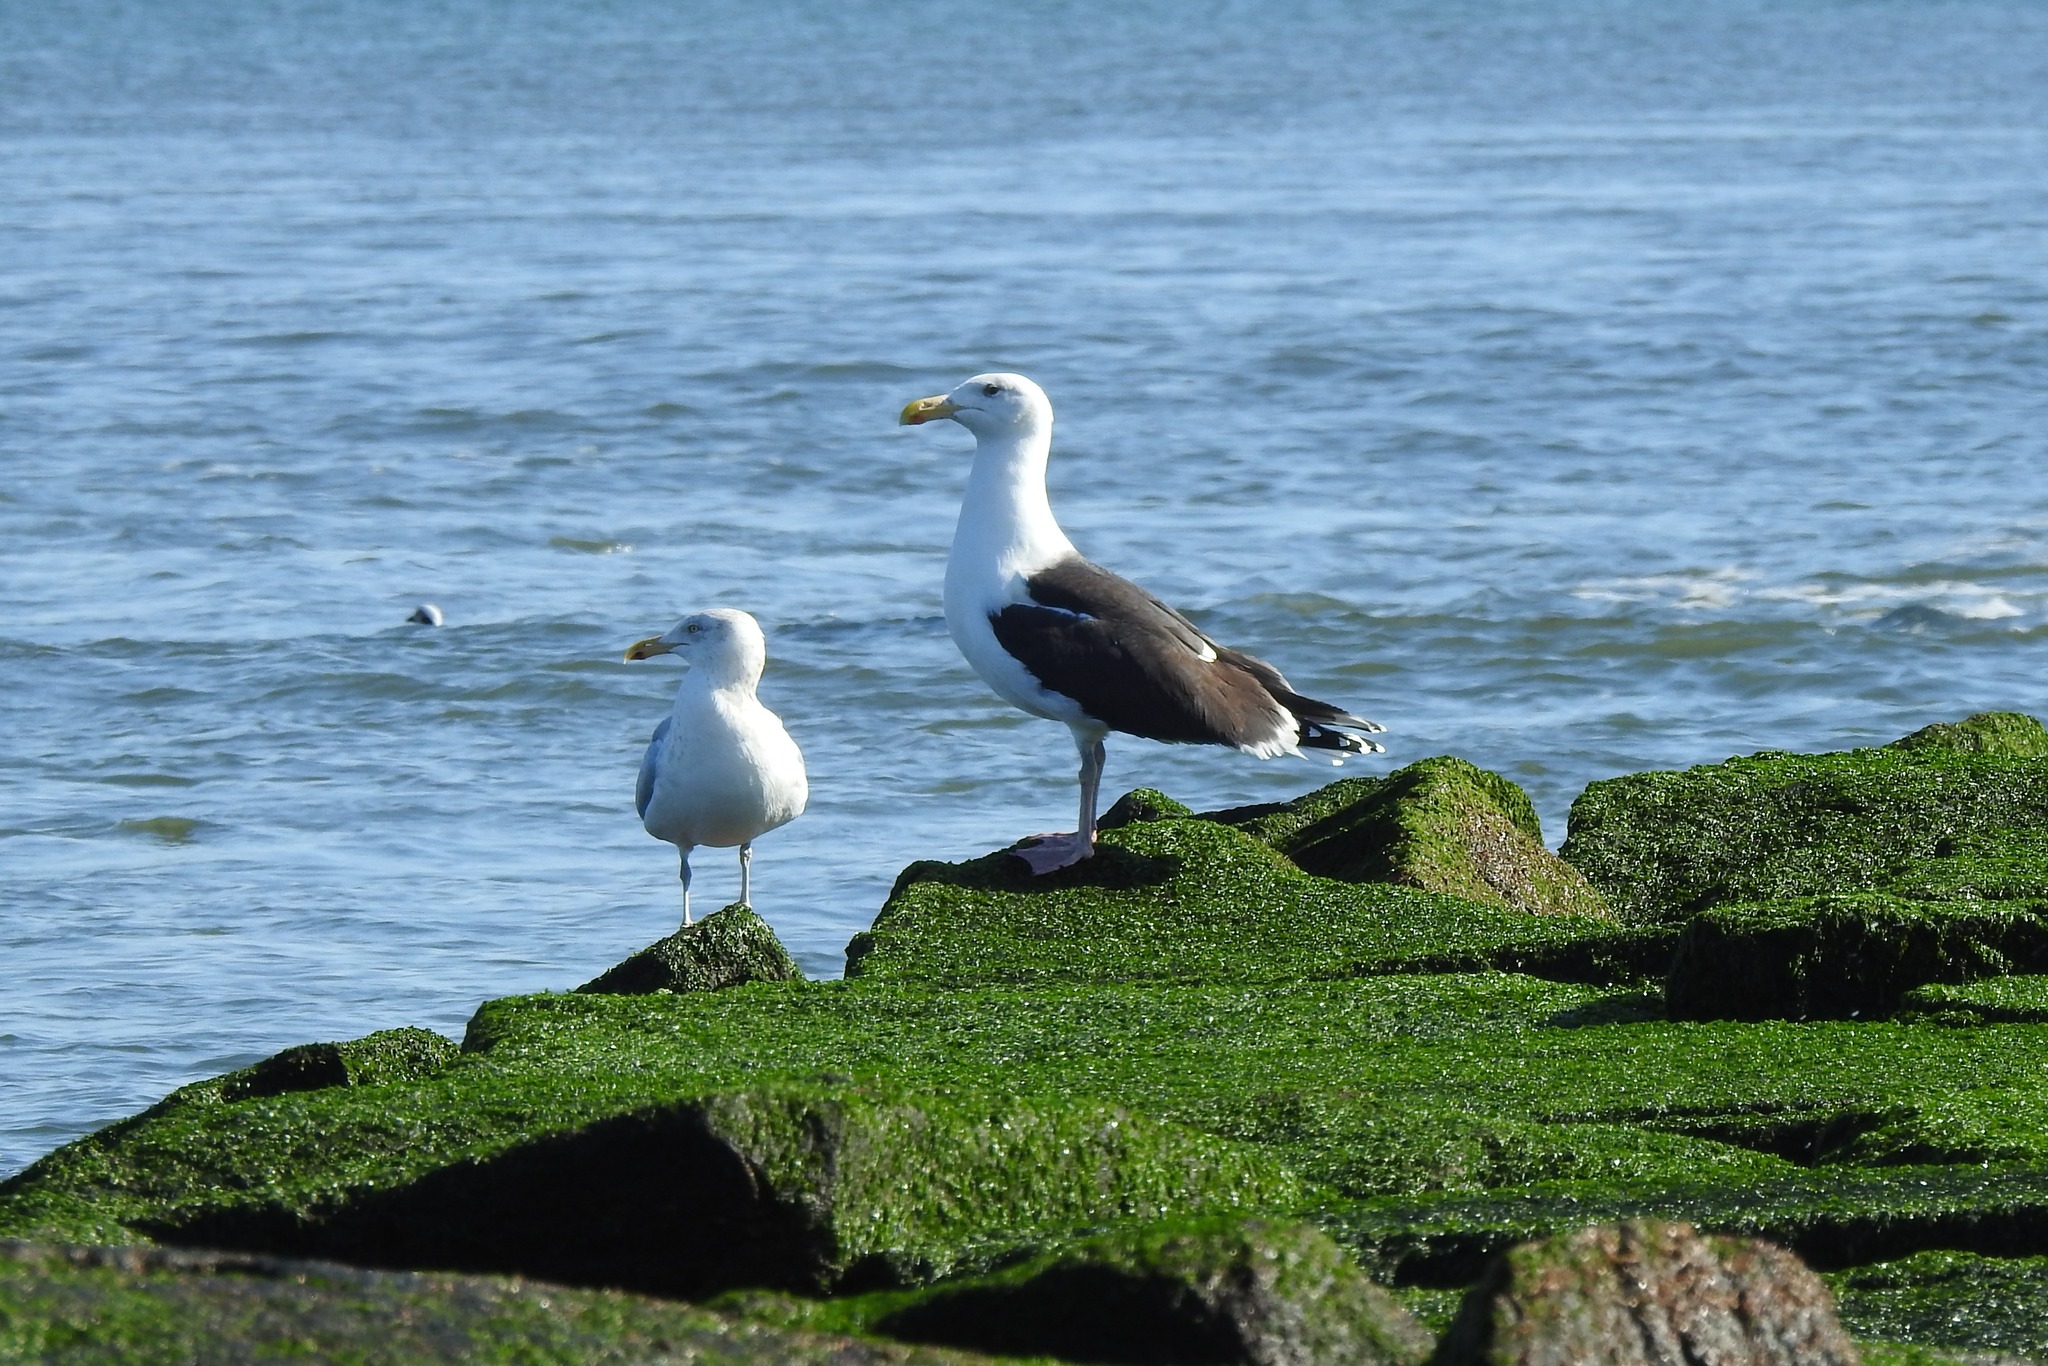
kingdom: Animalia
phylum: Chordata
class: Aves
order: Charadriiformes
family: Laridae
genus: Larus
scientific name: Larus argentatus
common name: Herring gull
